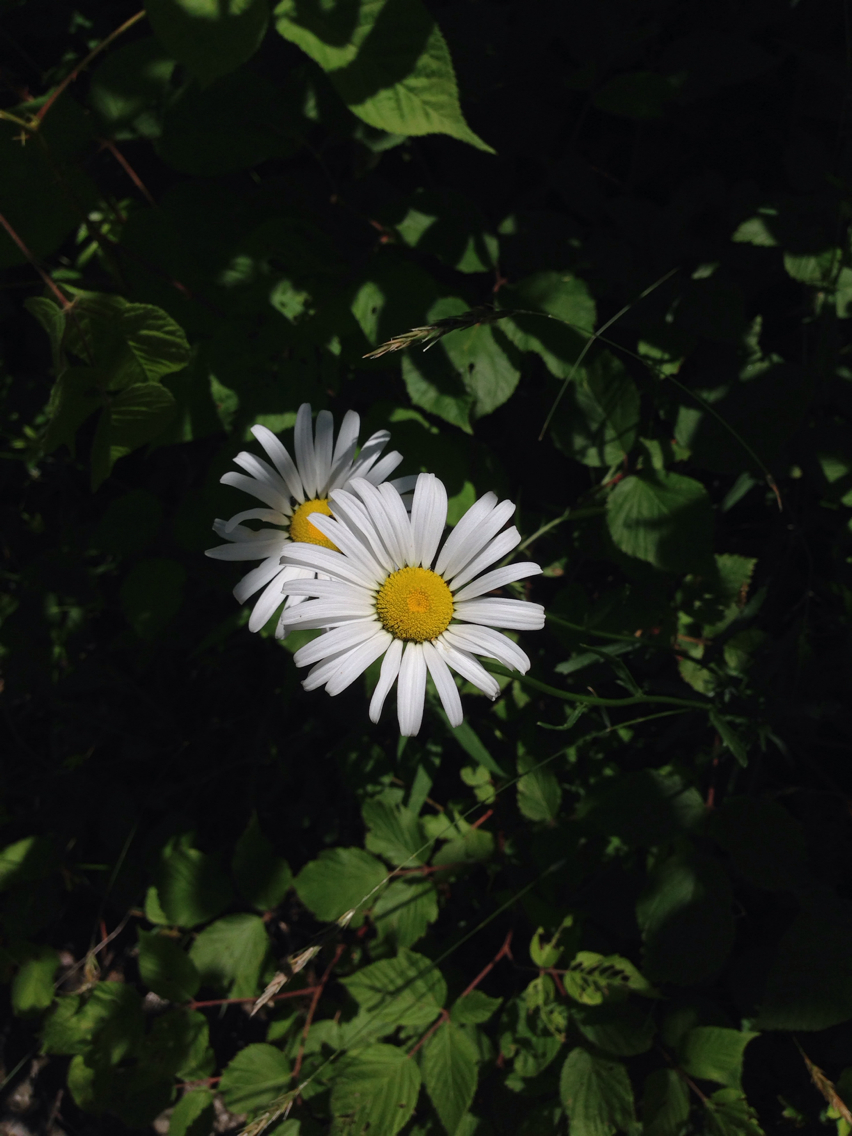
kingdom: Plantae
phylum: Tracheophyta
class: Magnoliopsida
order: Asterales
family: Asteraceae
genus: Leucanthemum
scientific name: Leucanthemum vulgare
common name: Oxeye daisy
